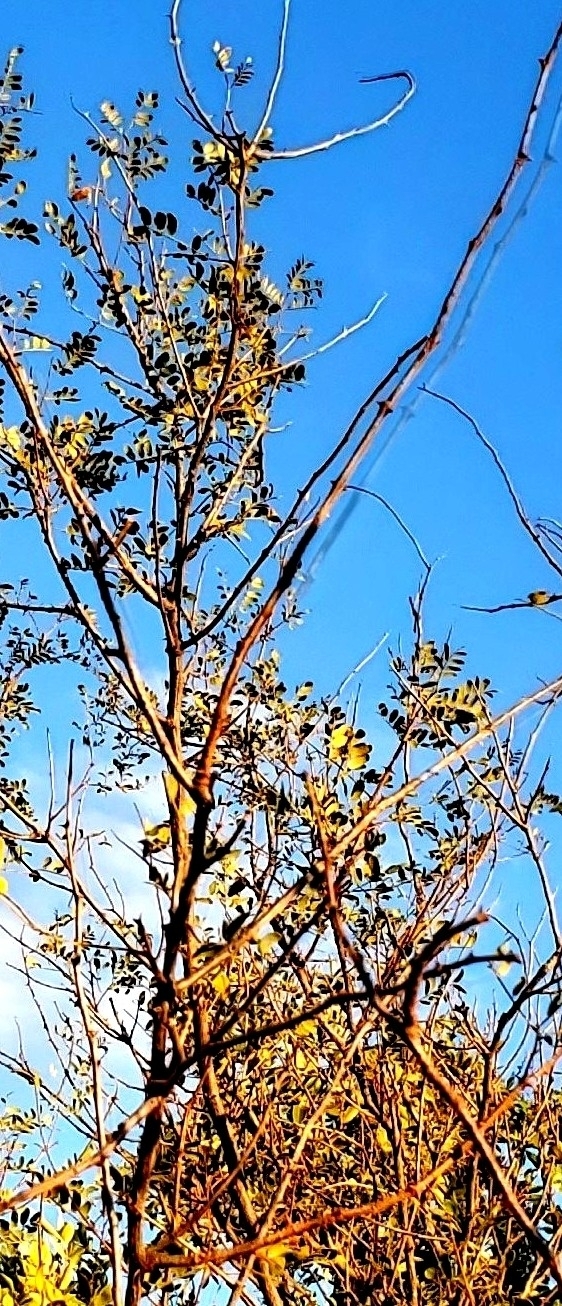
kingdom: Plantae
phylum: Tracheophyta
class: Magnoliopsida
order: Fabales
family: Fabaceae
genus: Senegalia
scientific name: Senegalia roemeriana
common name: Roemer's acacia
